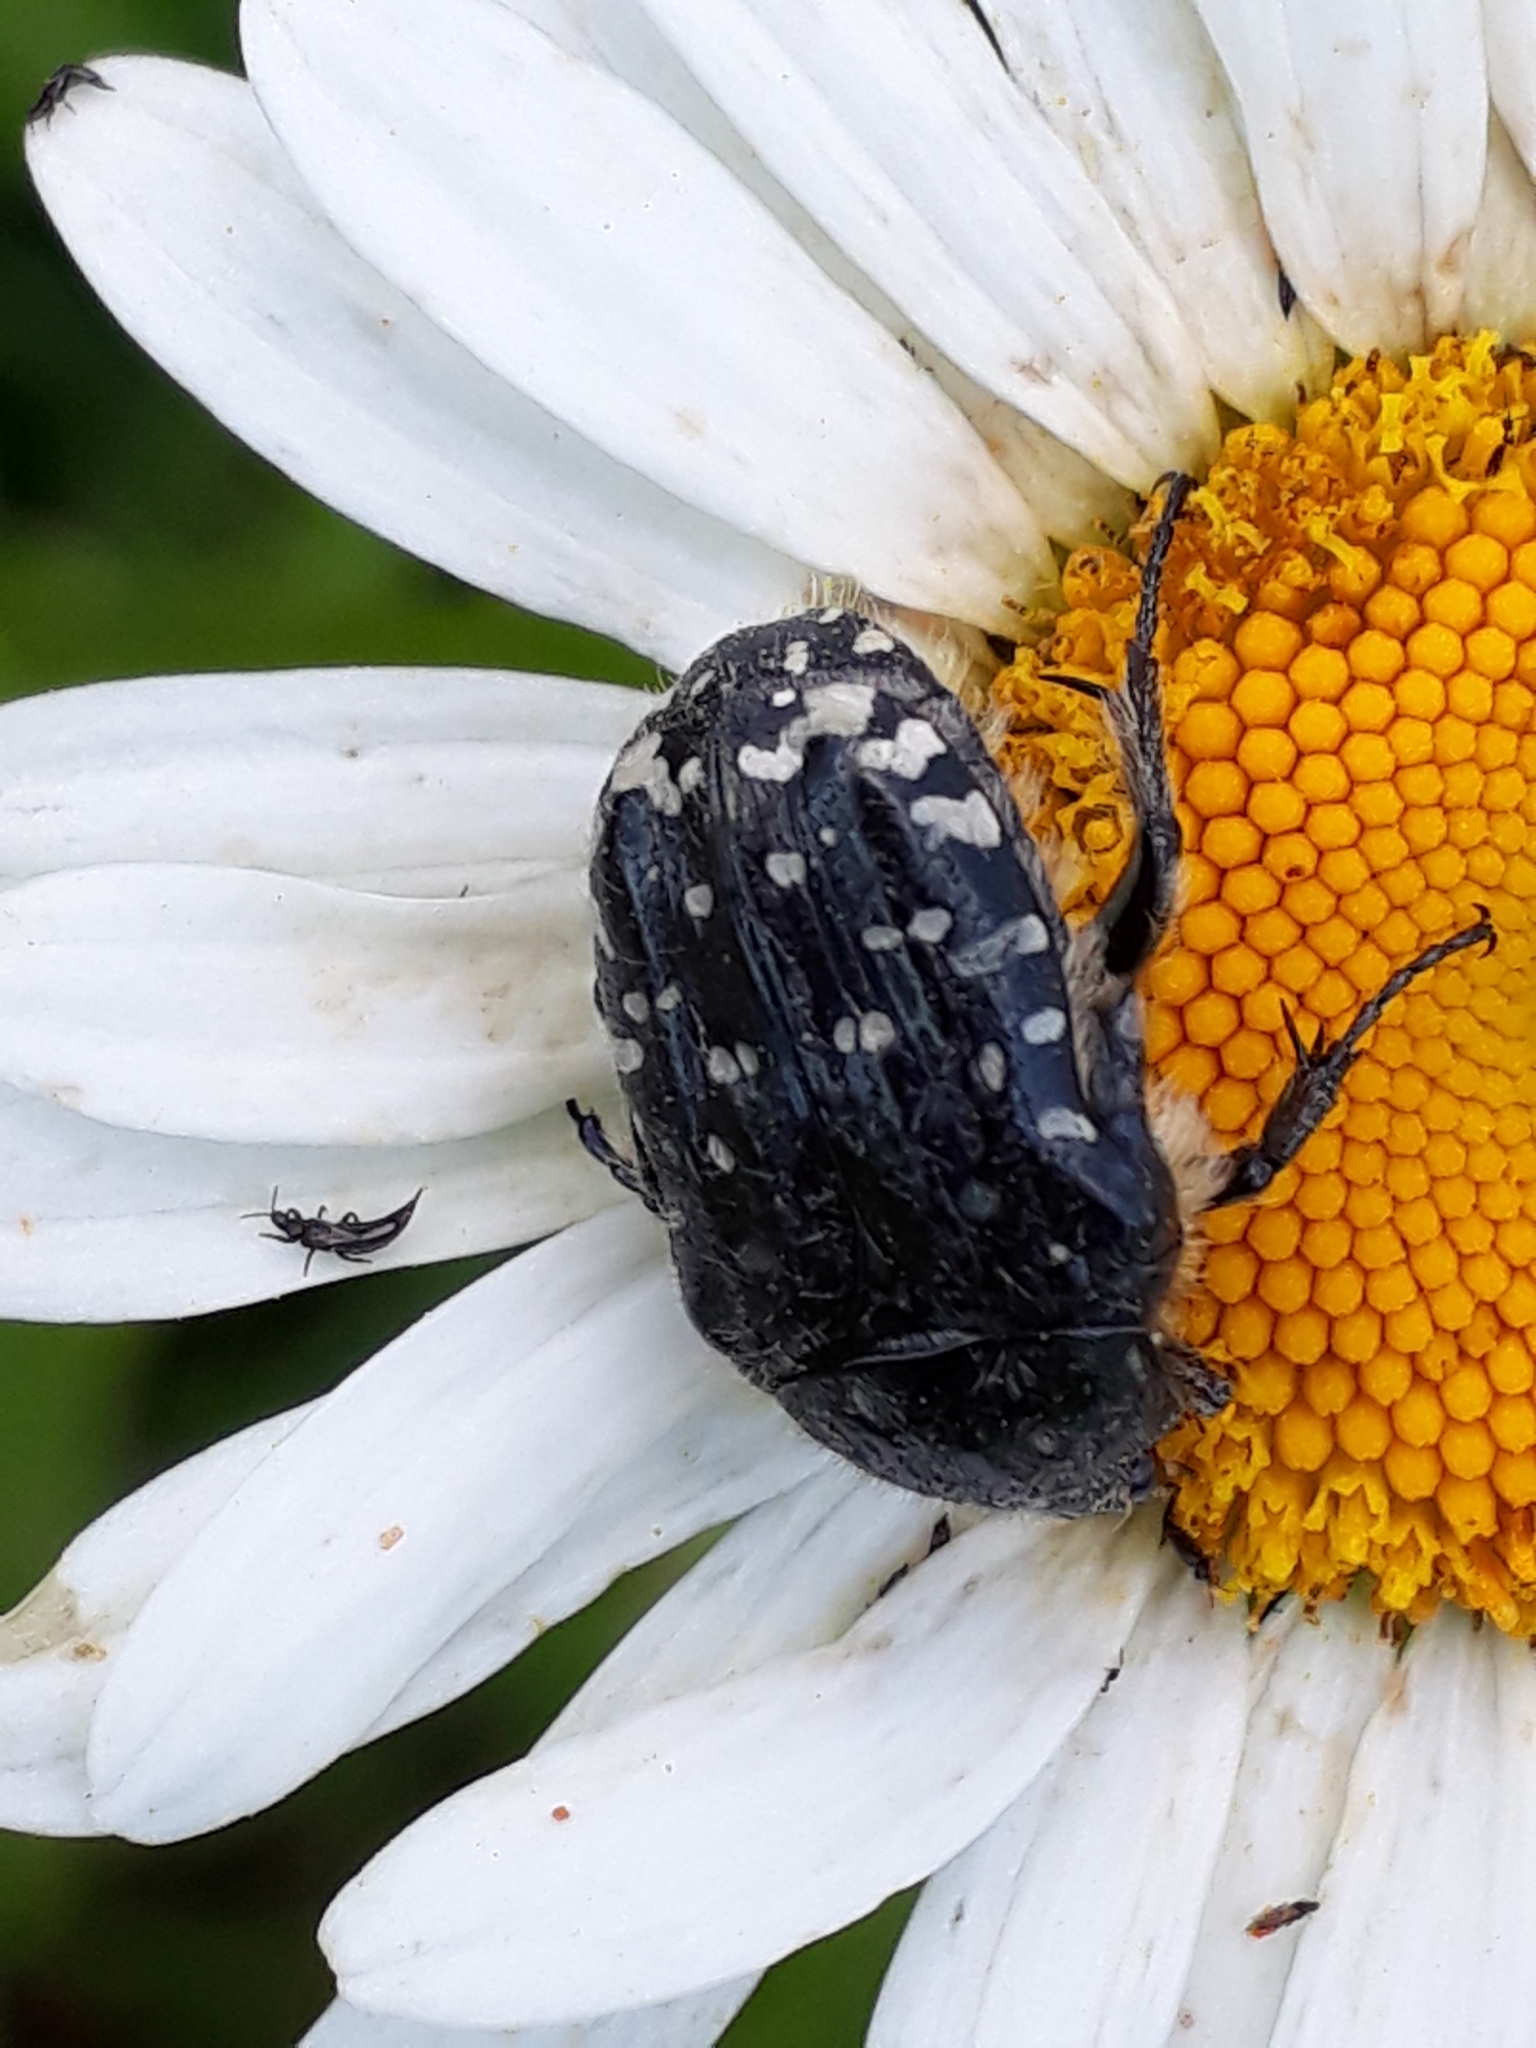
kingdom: Animalia
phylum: Arthropoda
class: Insecta
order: Coleoptera
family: Scarabaeidae
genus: Oxythyrea
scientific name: Oxythyrea funesta
